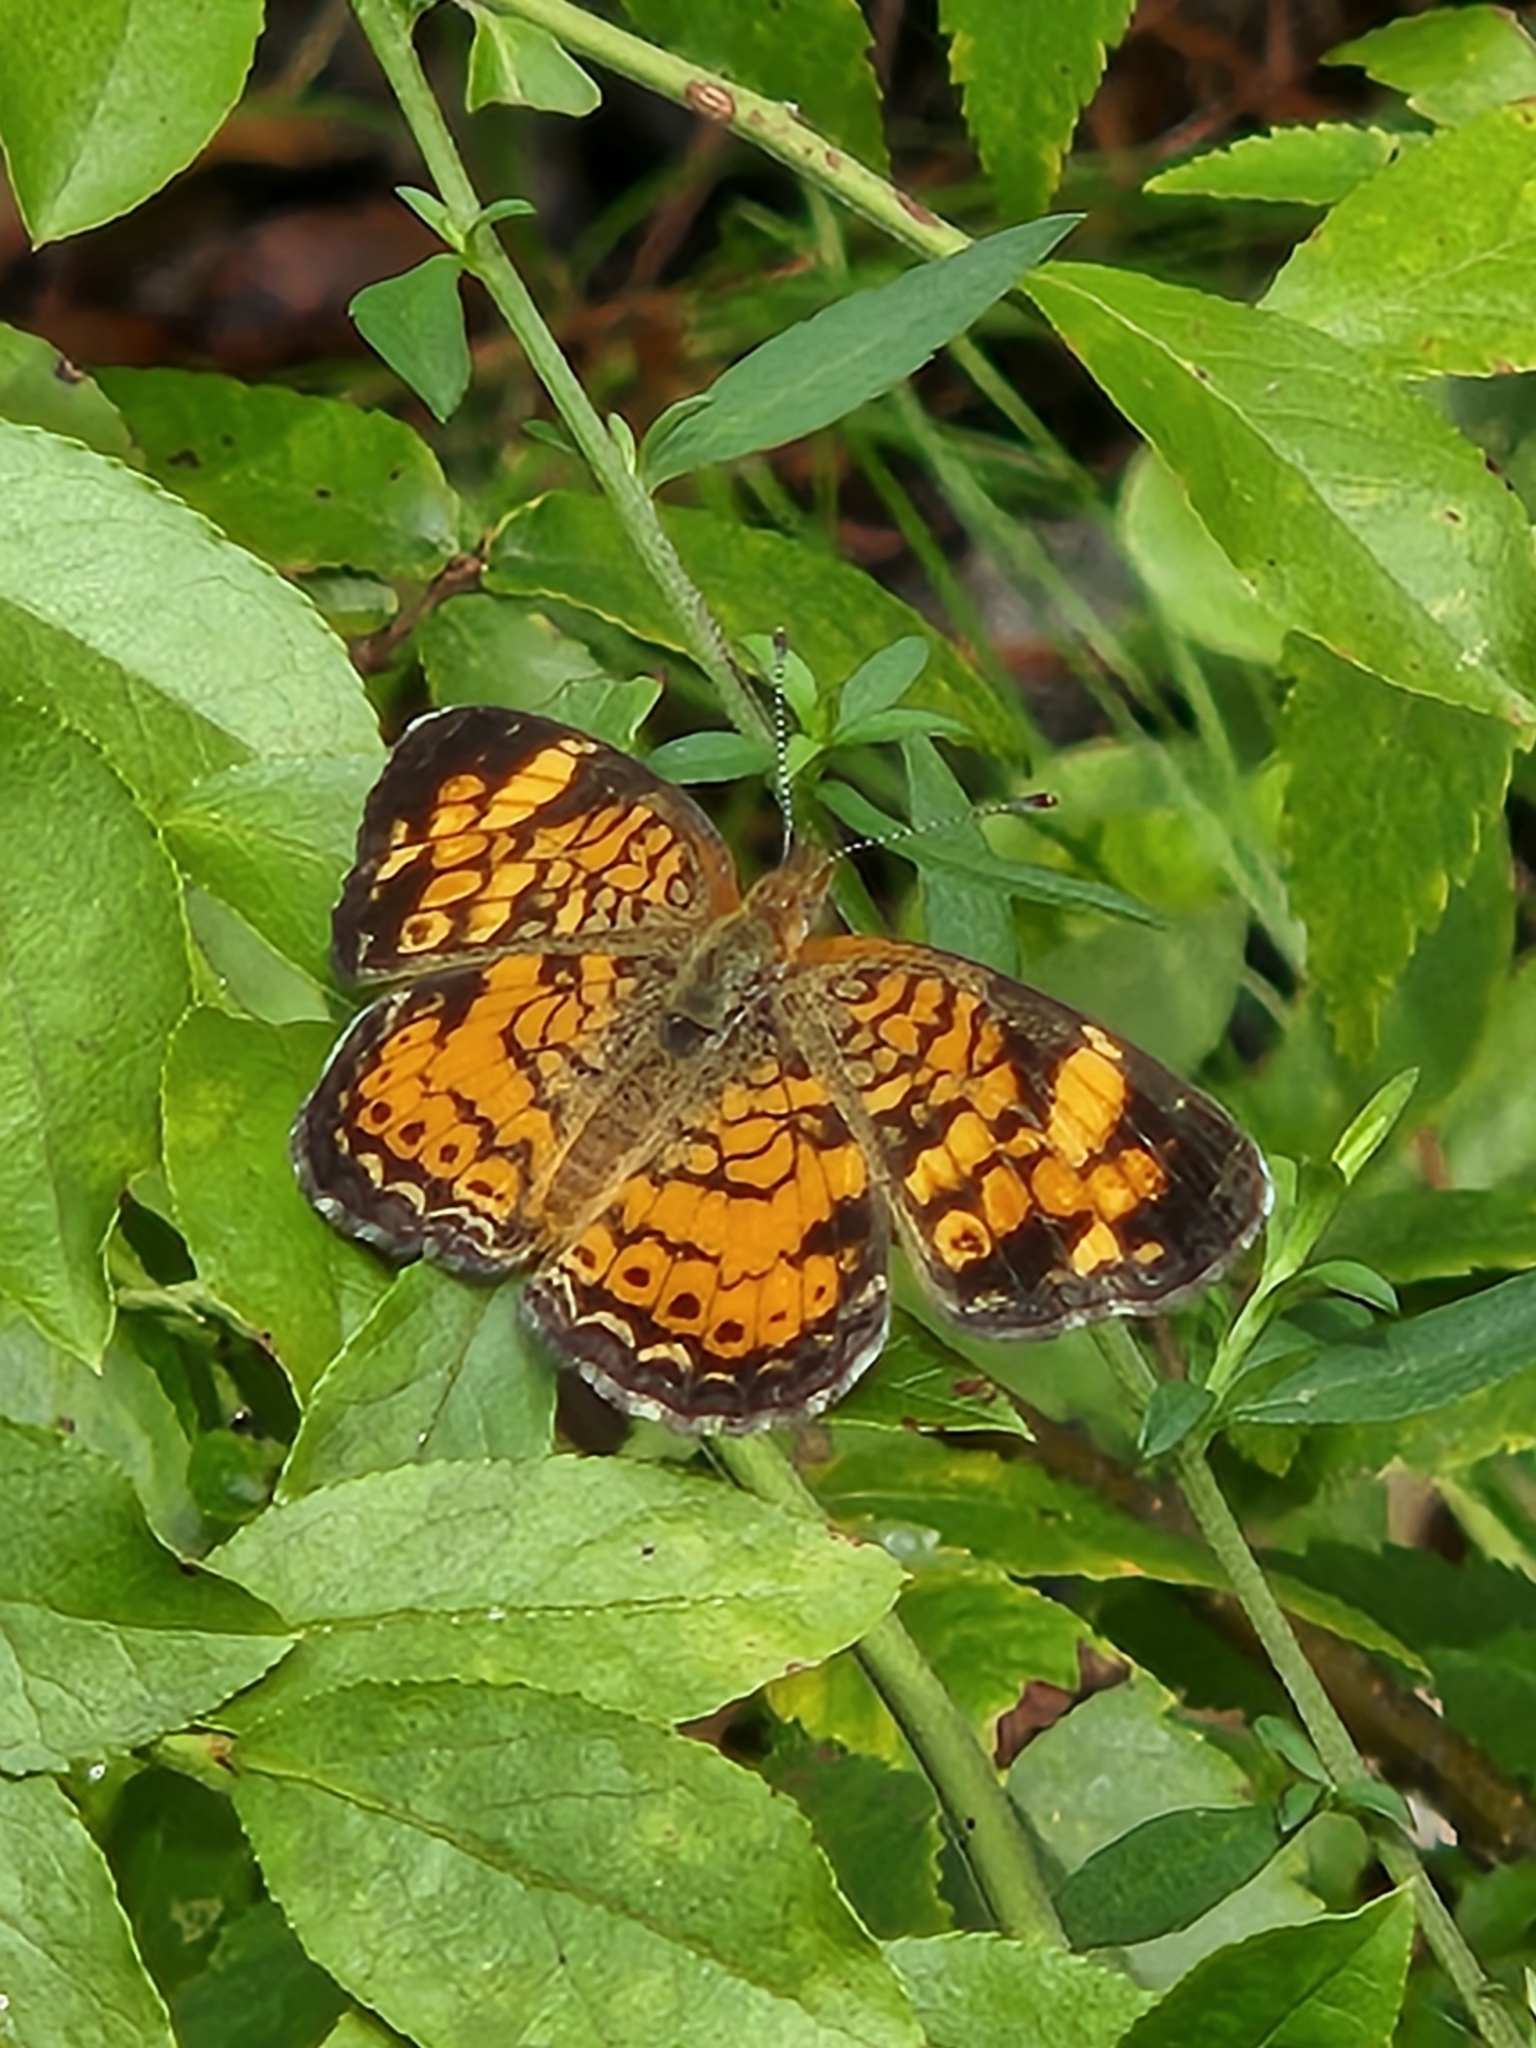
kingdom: Animalia
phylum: Arthropoda
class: Insecta
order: Lepidoptera
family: Nymphalidae
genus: Phyciodes
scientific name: Phyciodes tharos
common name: Pearl crescent
